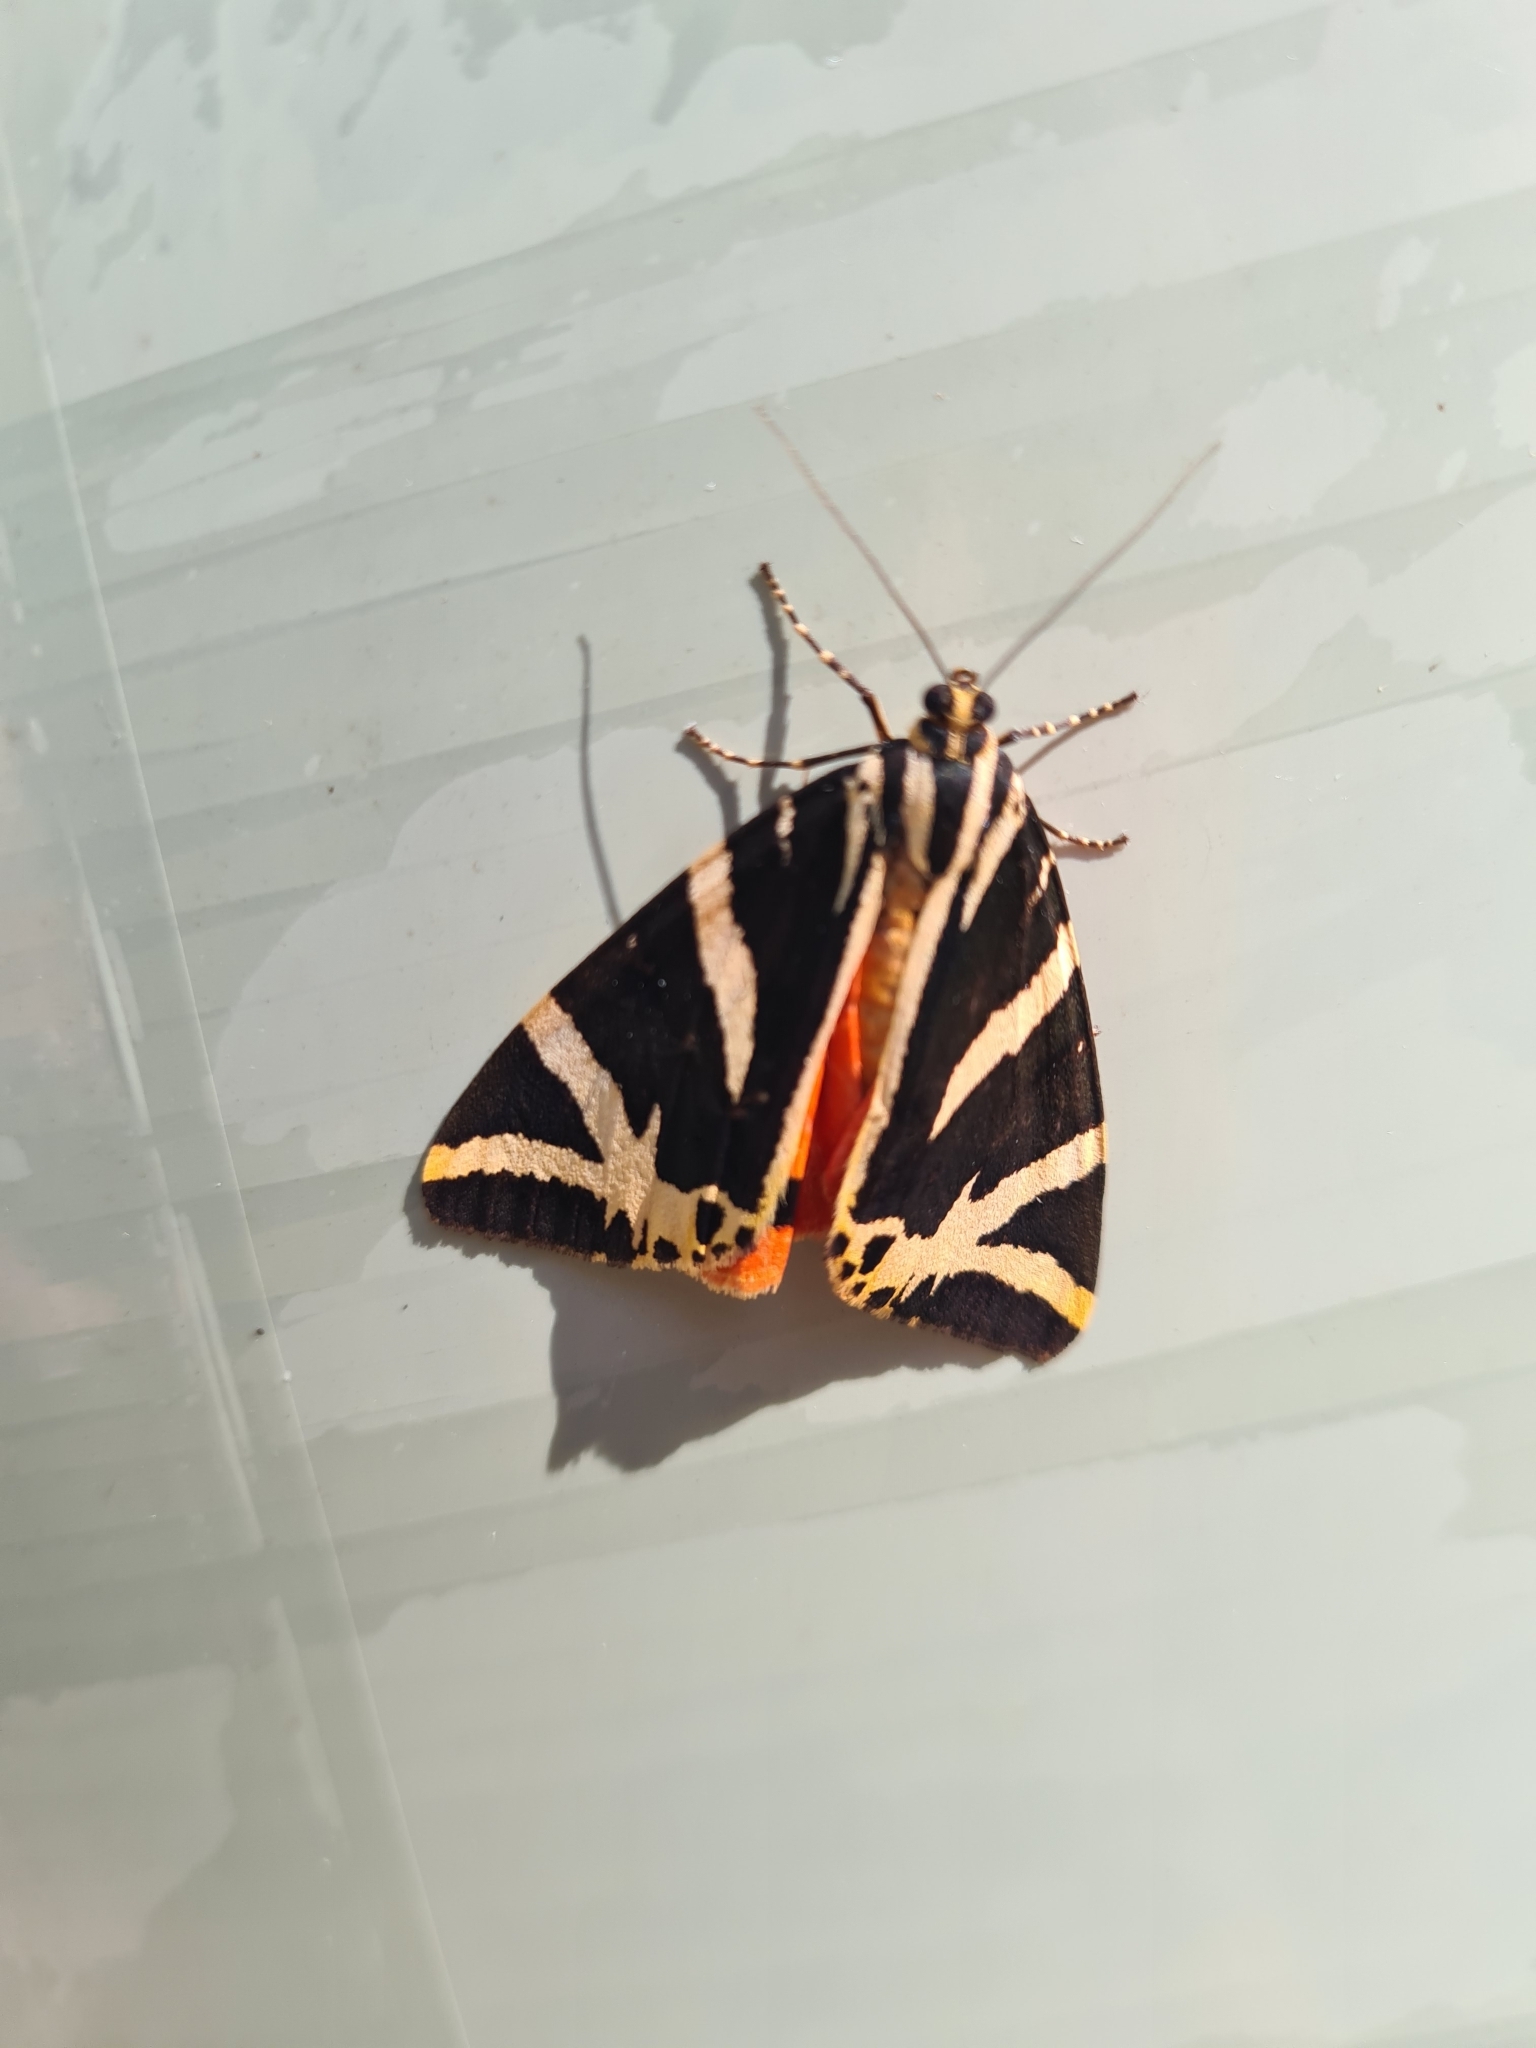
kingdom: Animalia
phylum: Arthropoda
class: Insecta
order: Lepidoptera
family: Erebidae
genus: Euplagia
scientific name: Euplagia quadripunctaria
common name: Jersey tiger
